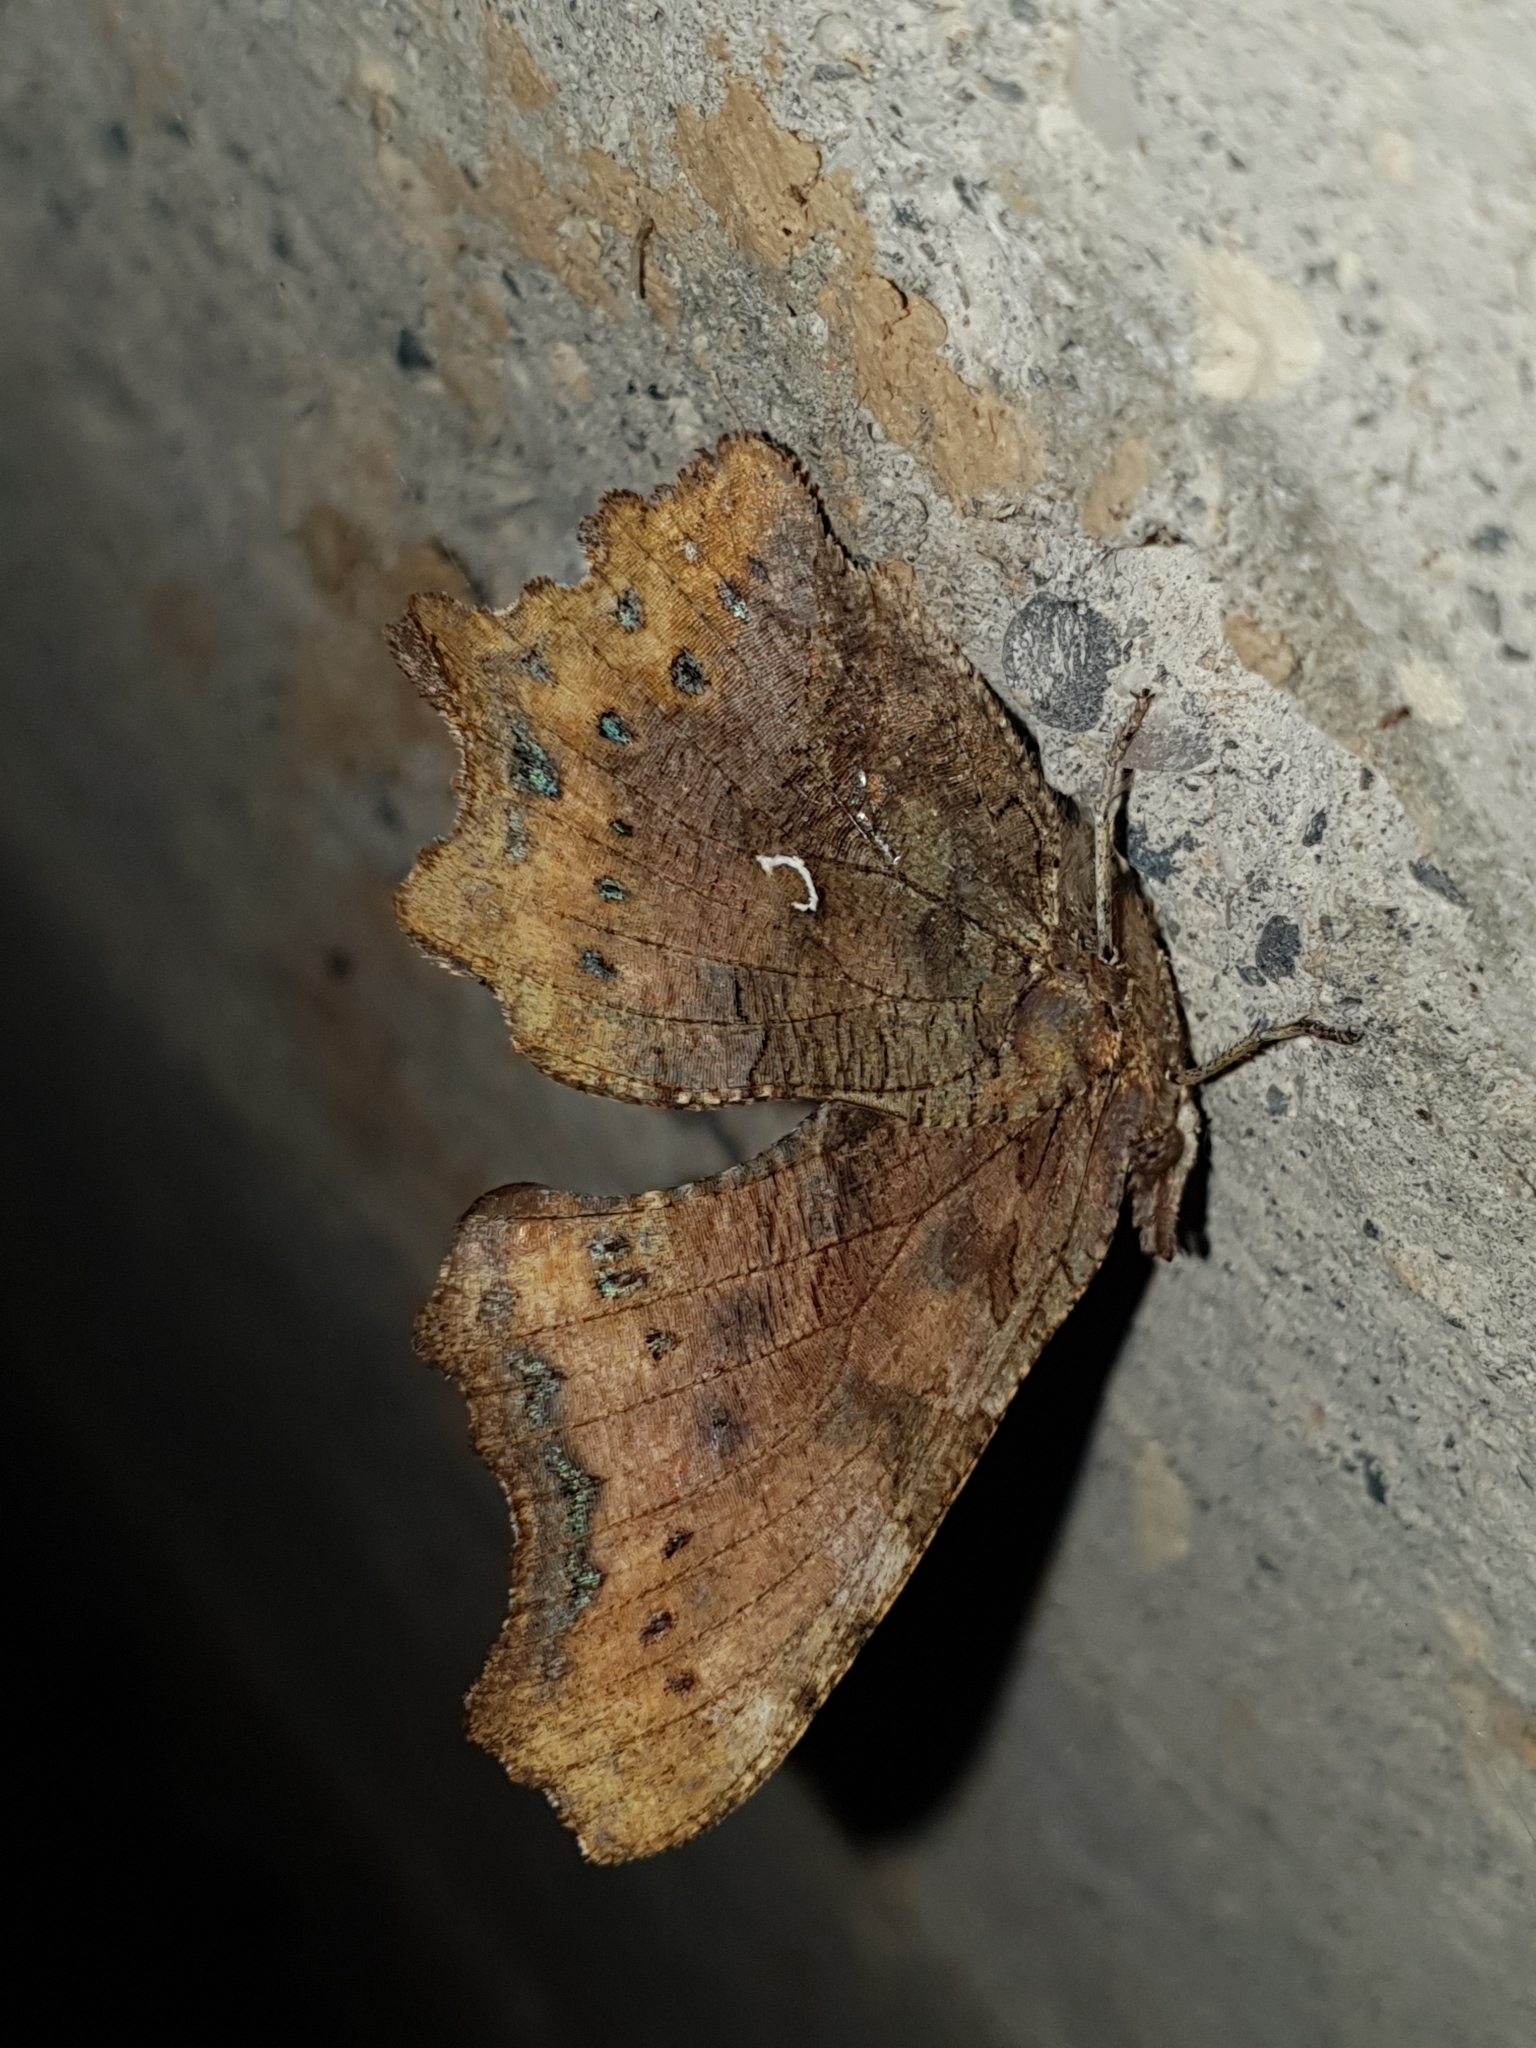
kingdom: Animalia
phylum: Arthropoda
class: Insecta
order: Lepidoptera
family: Nymphalidae
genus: Polygonia
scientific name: Polygonia c-album
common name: Comma
